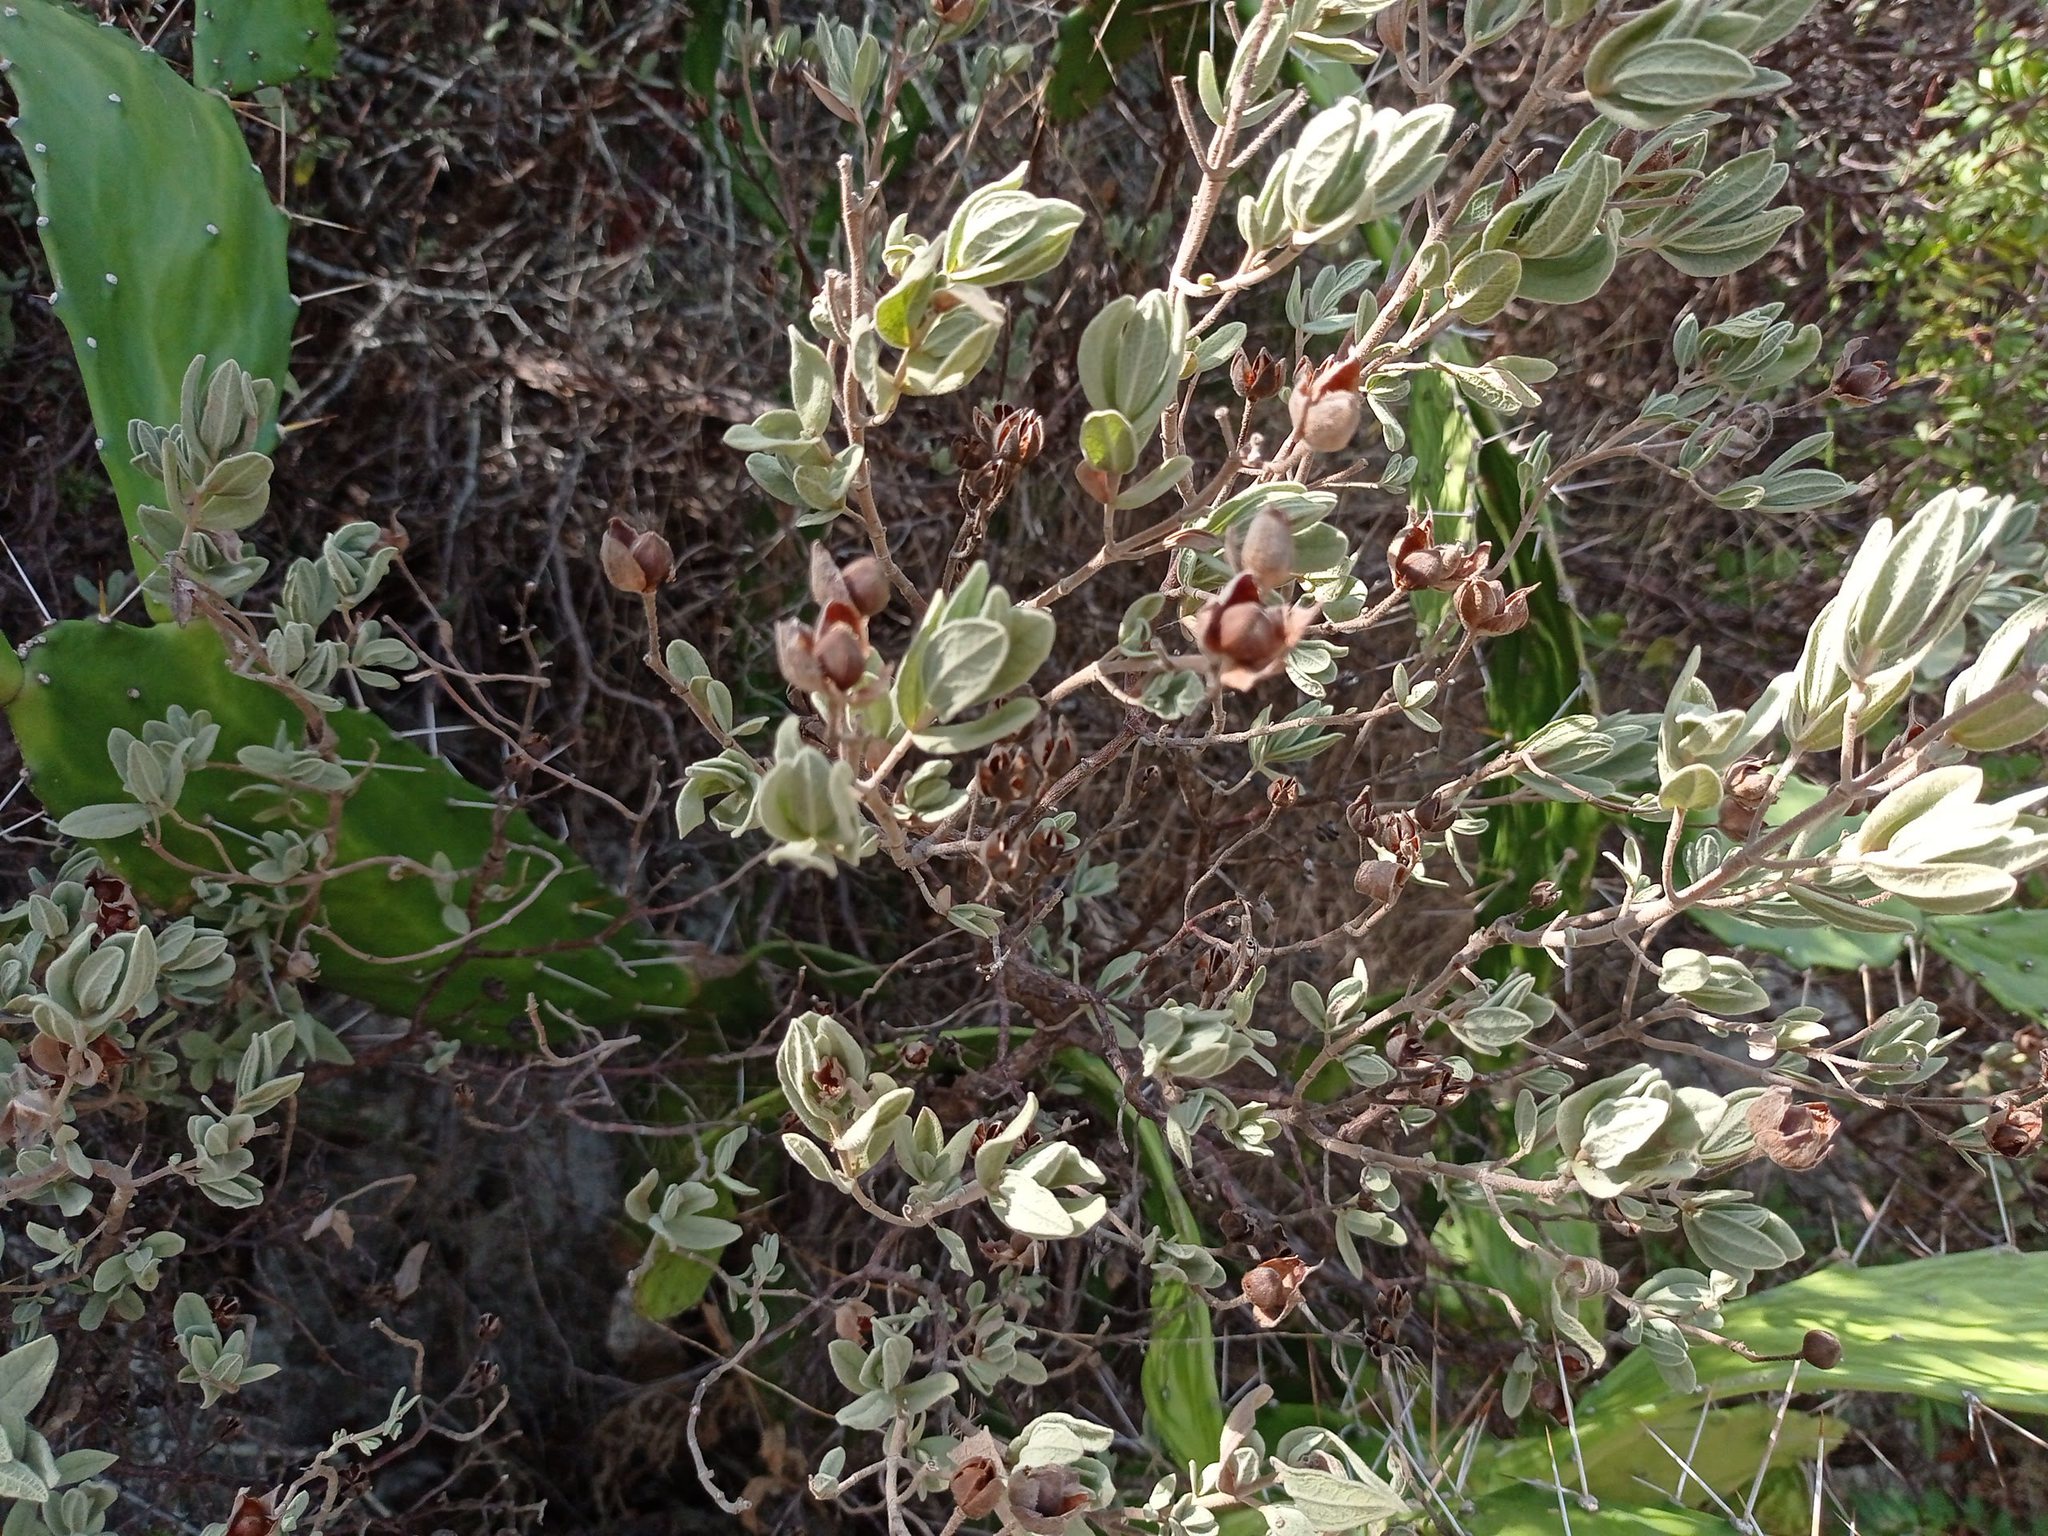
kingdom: Plantae
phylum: Tracheophyta
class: Magnoliopsida
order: Malvales
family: Cistaceae
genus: Cistus
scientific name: Cistus albidus
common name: White-leaf rock-rose
